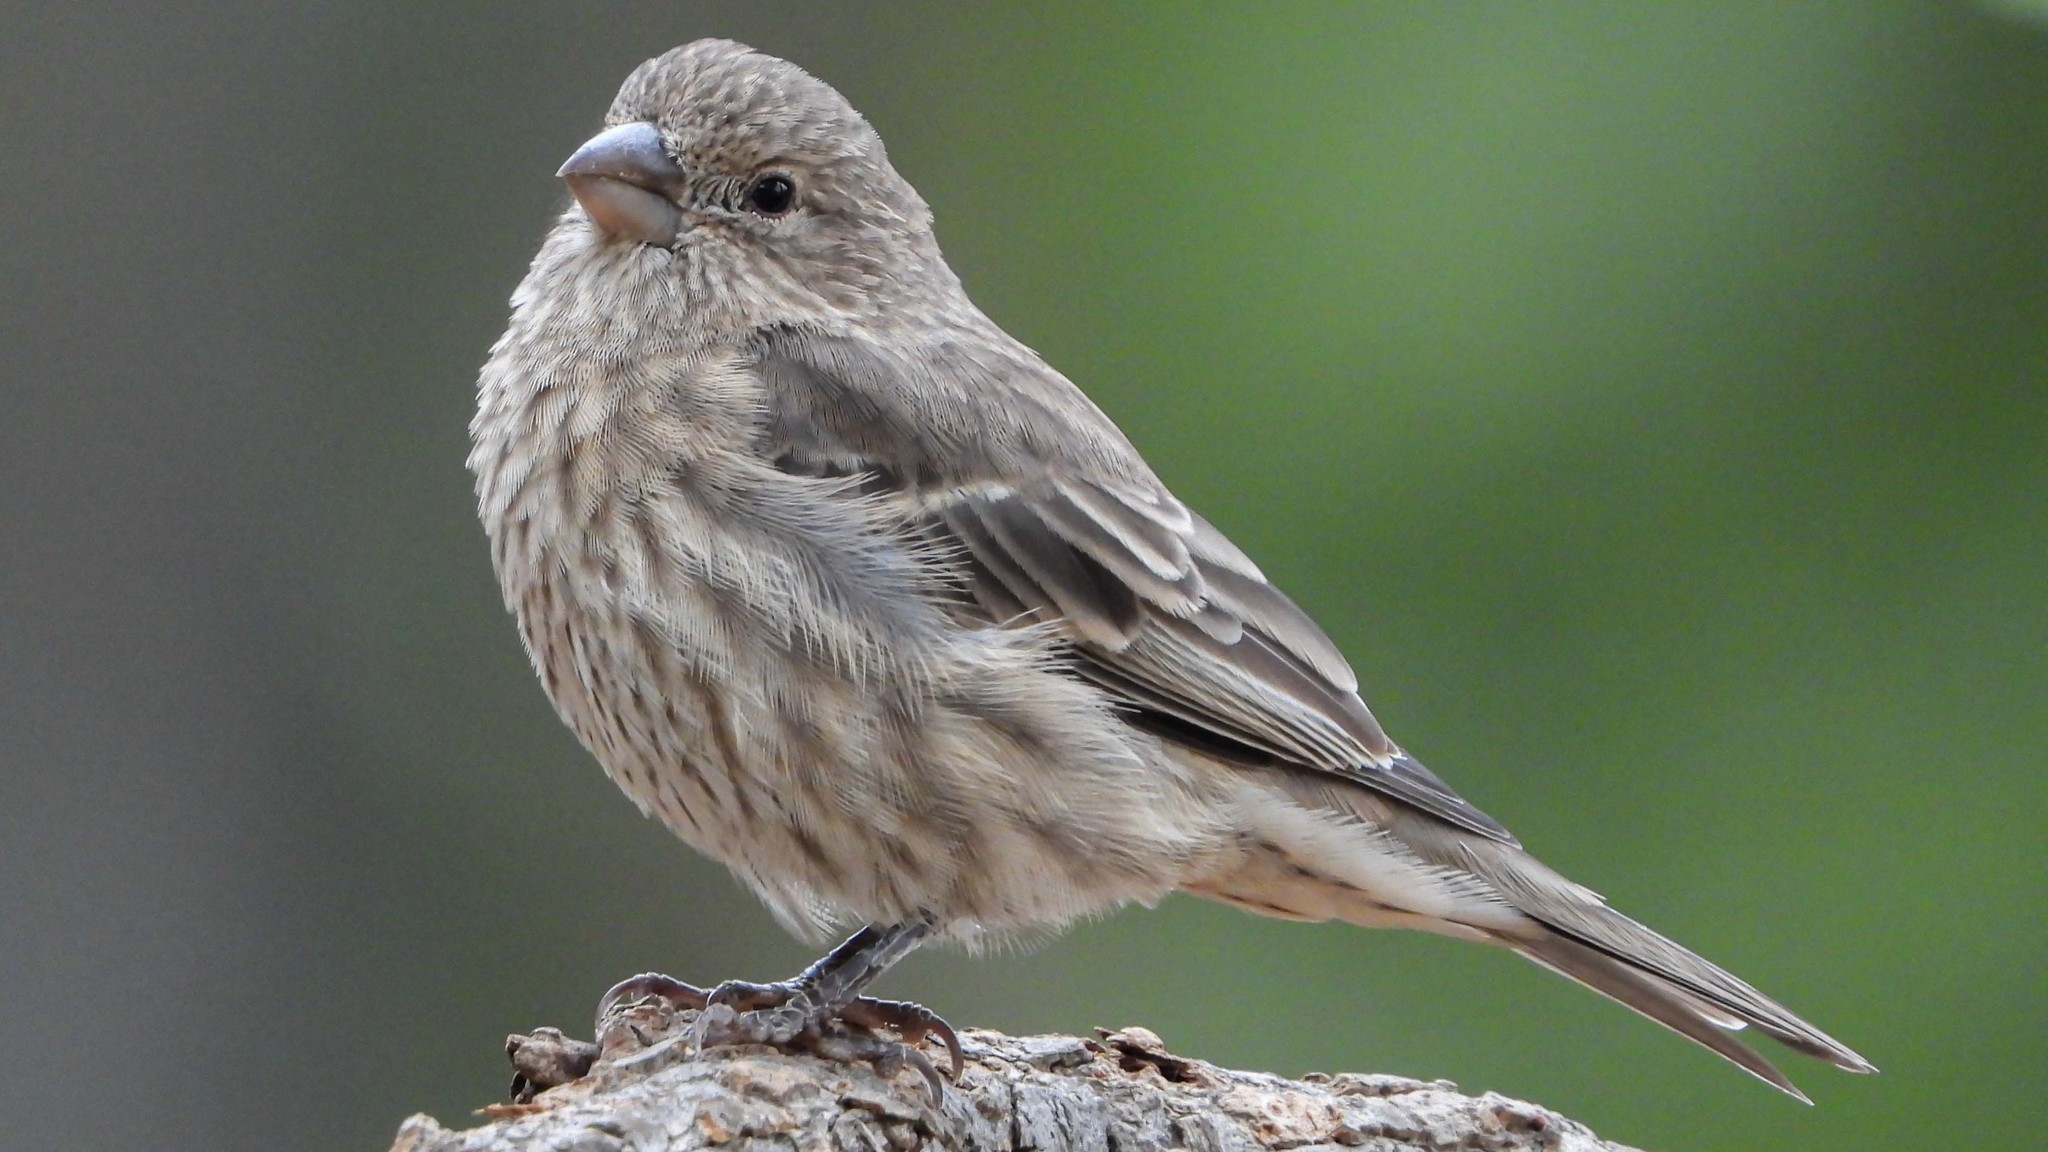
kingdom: Animalia
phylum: Chordata
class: Aves
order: Passeriformes
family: Fringillidae
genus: Haemorhous
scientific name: Haemorhous mexicanus
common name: House finch
